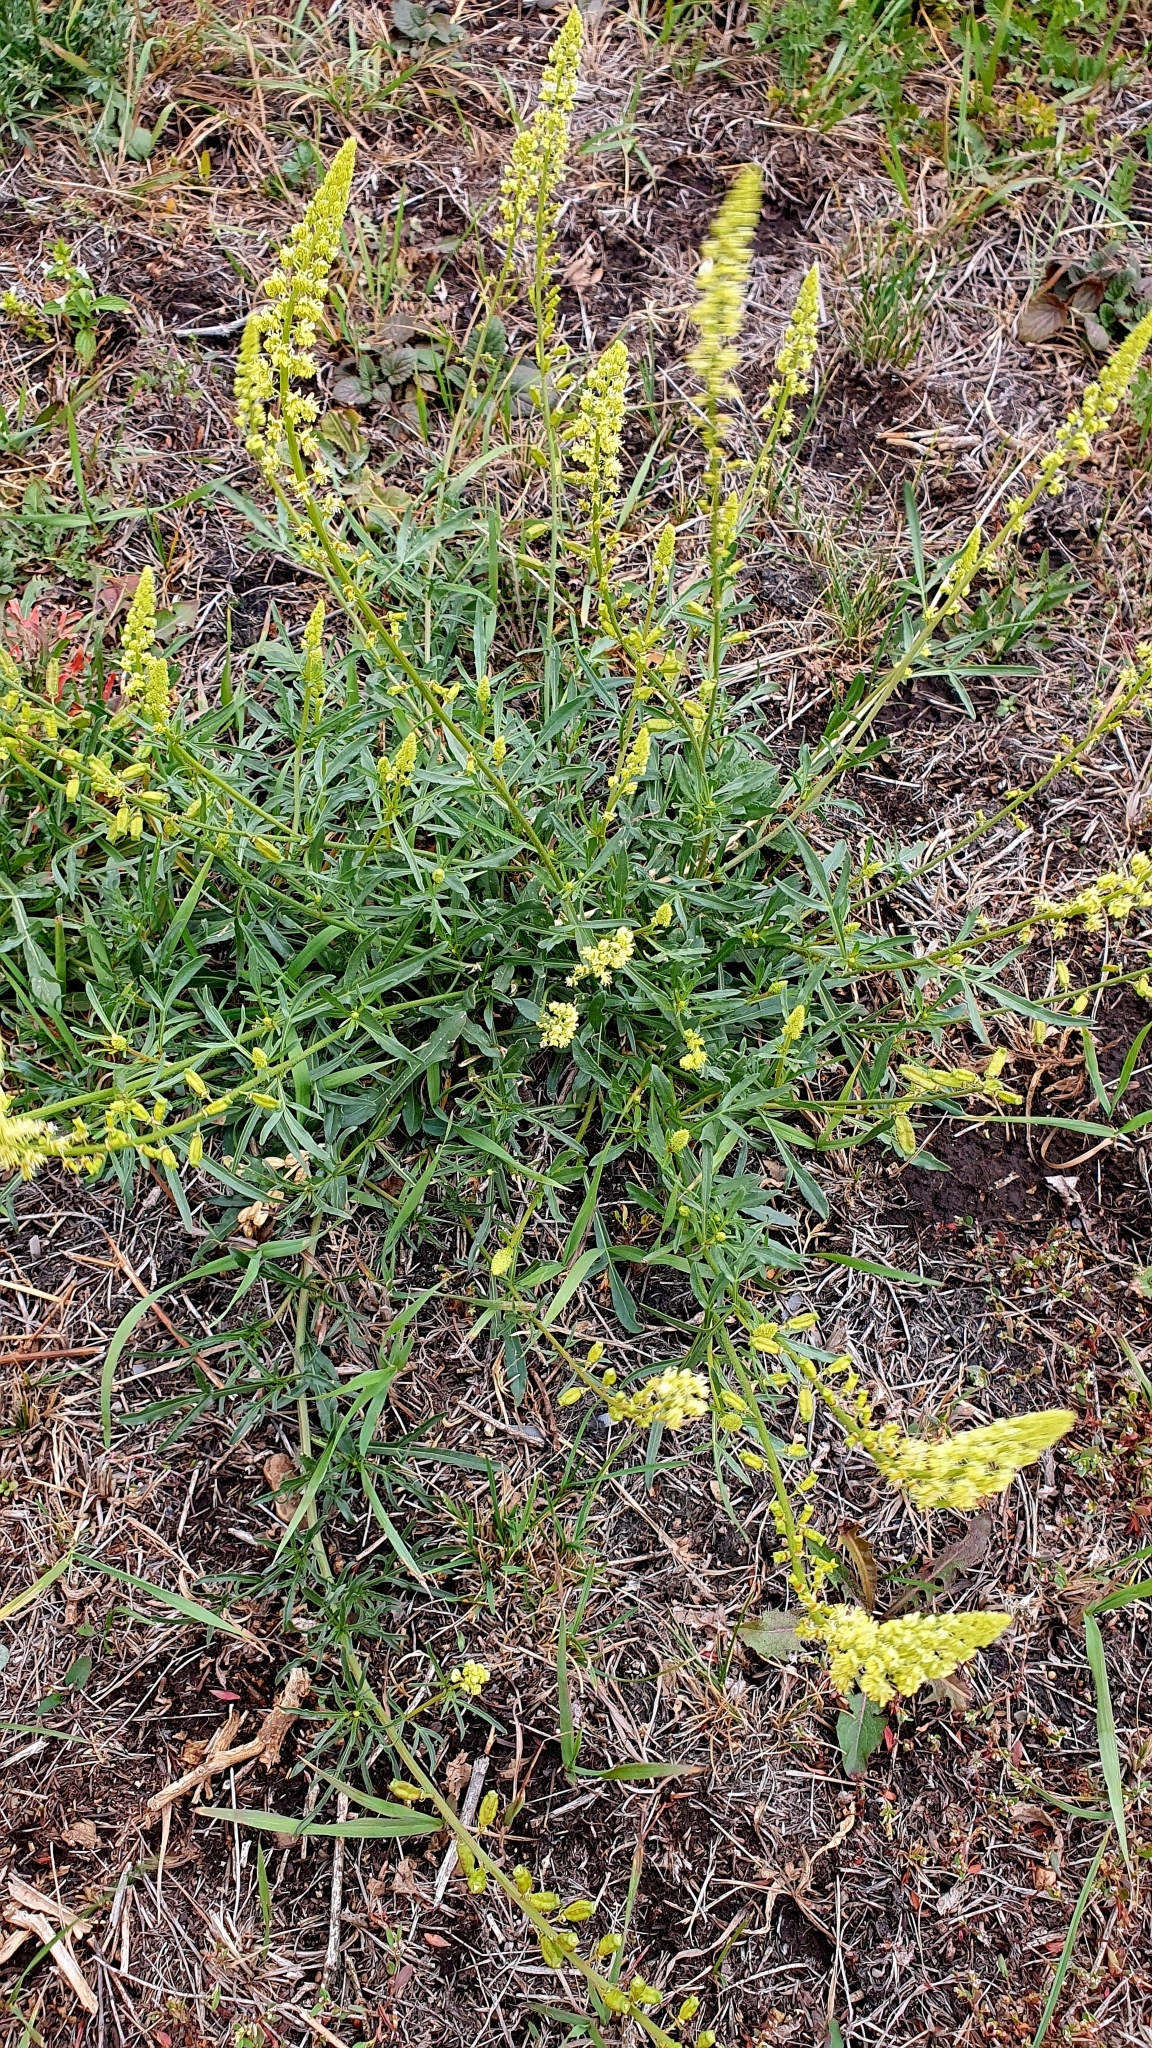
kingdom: Plantae
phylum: Tracheophyta
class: Magnoliopsida
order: Brassicales
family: Resedaceae
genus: Reseda
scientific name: Reseda lutea
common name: Wild mignonette
